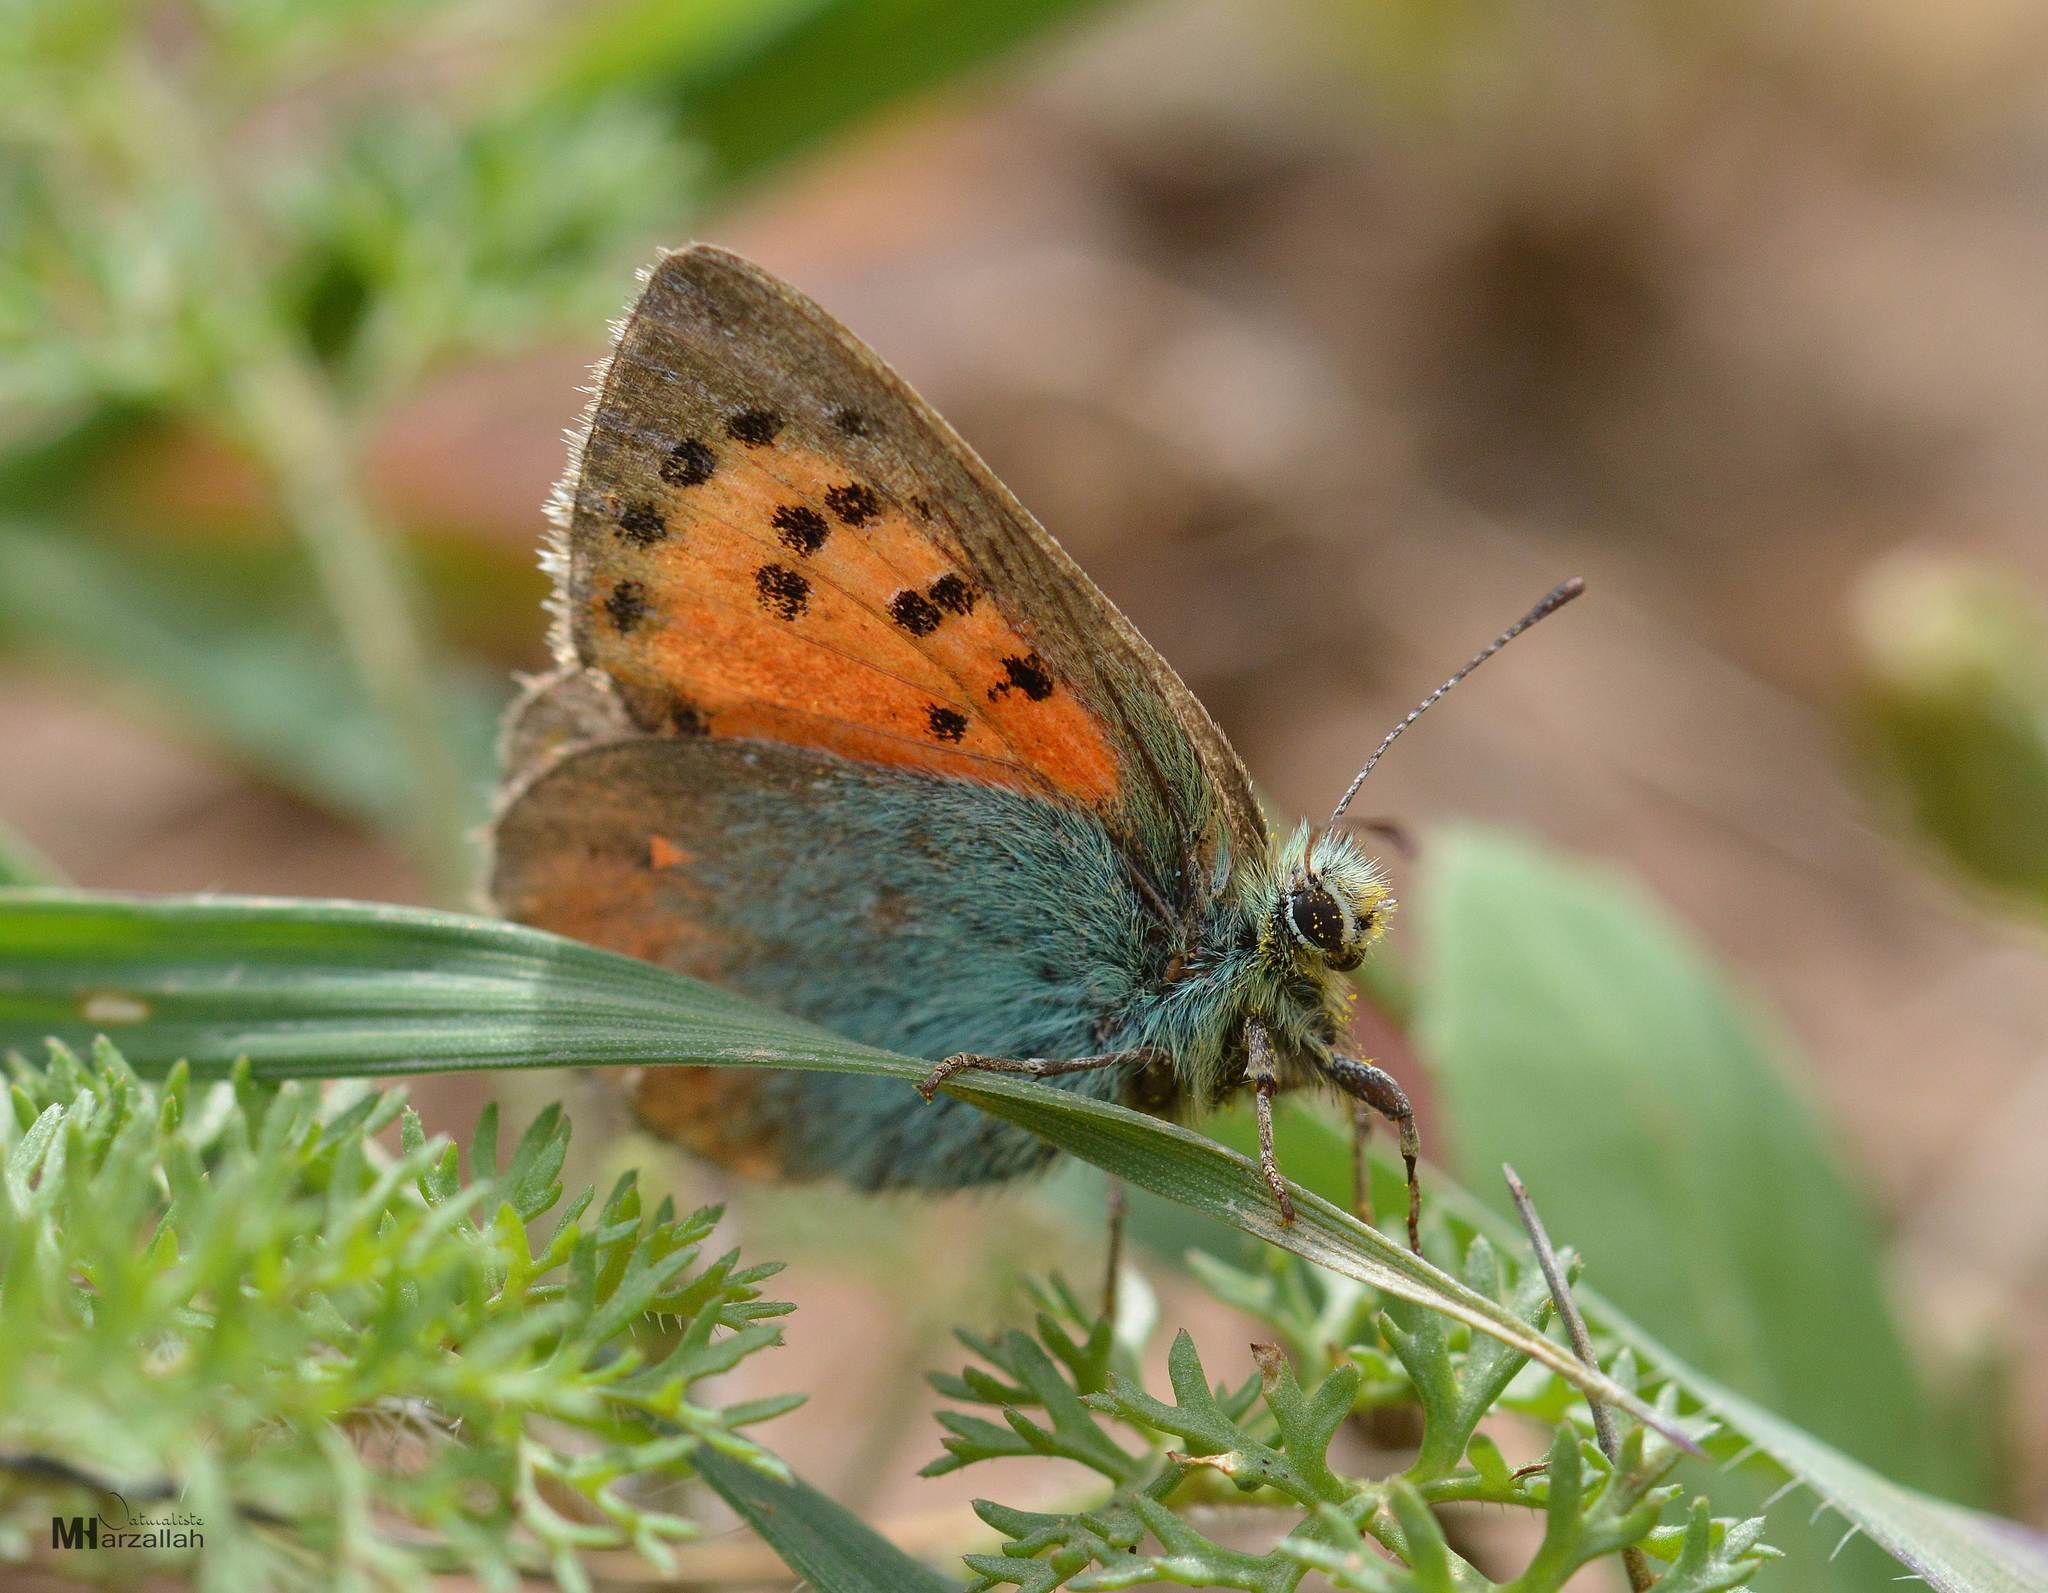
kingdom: Animalia
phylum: Arthropoda
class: Insecta
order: Lepidoptera
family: Lycaenidae
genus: Tomares
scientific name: Tomares ballus
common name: Provence hairstreak
